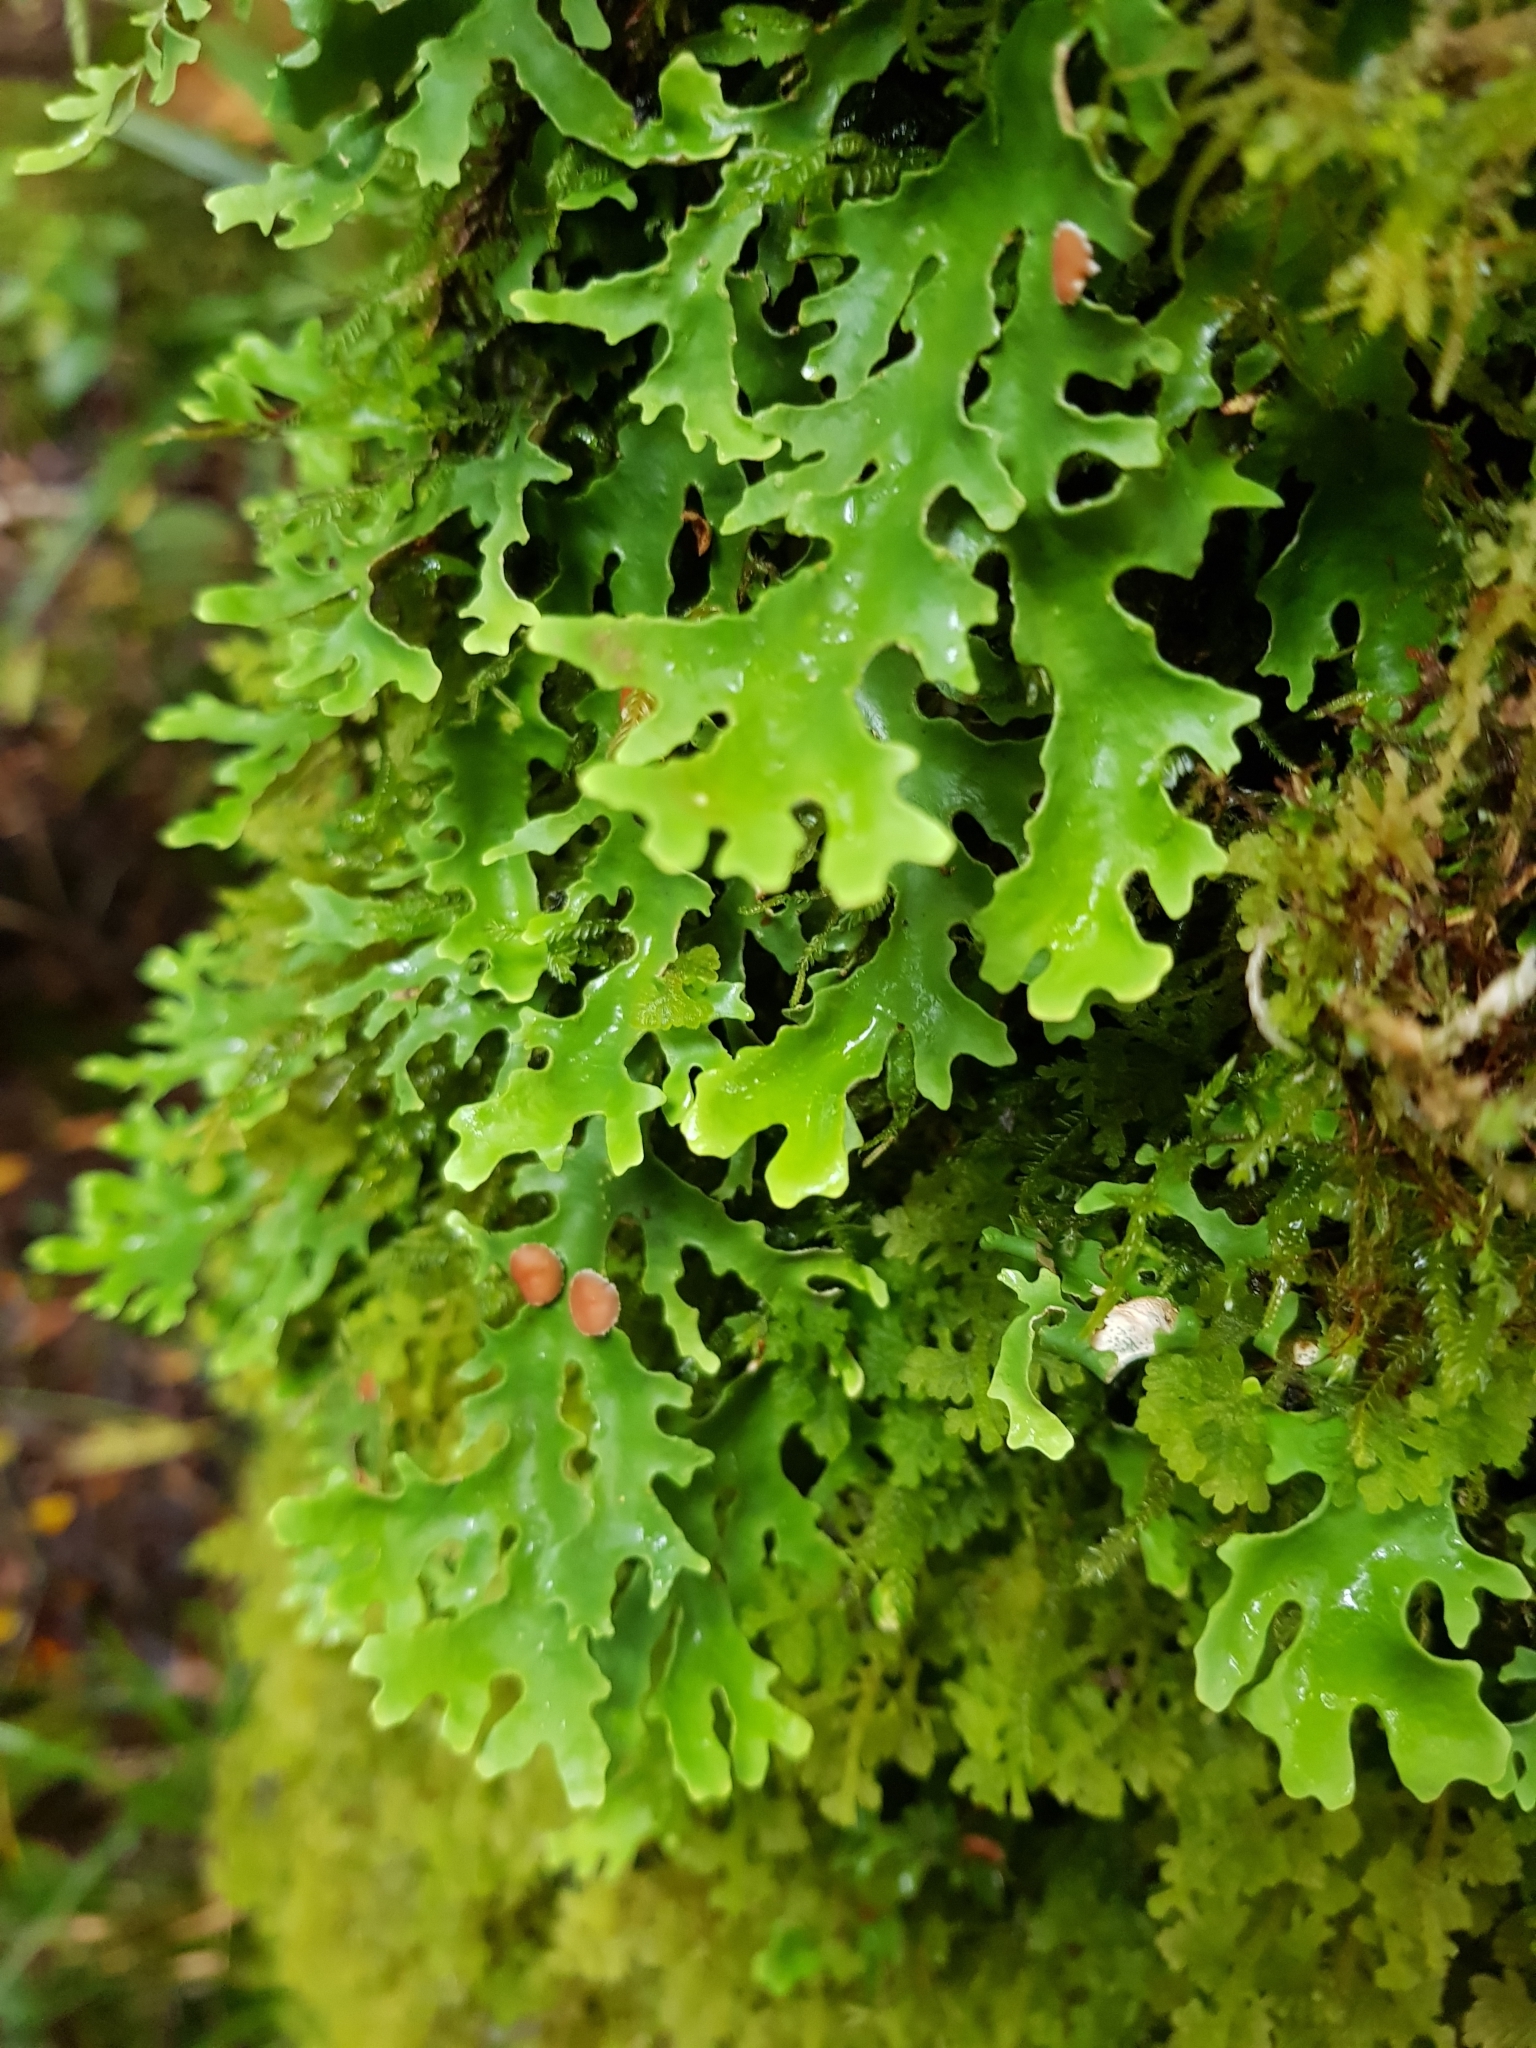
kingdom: Fungi
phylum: Ascomycota
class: Lecanoromycetes
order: Peltigerales
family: Lobariaceae
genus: Pseudocyphellaria
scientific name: Pseudocyphellaria homeophylla
